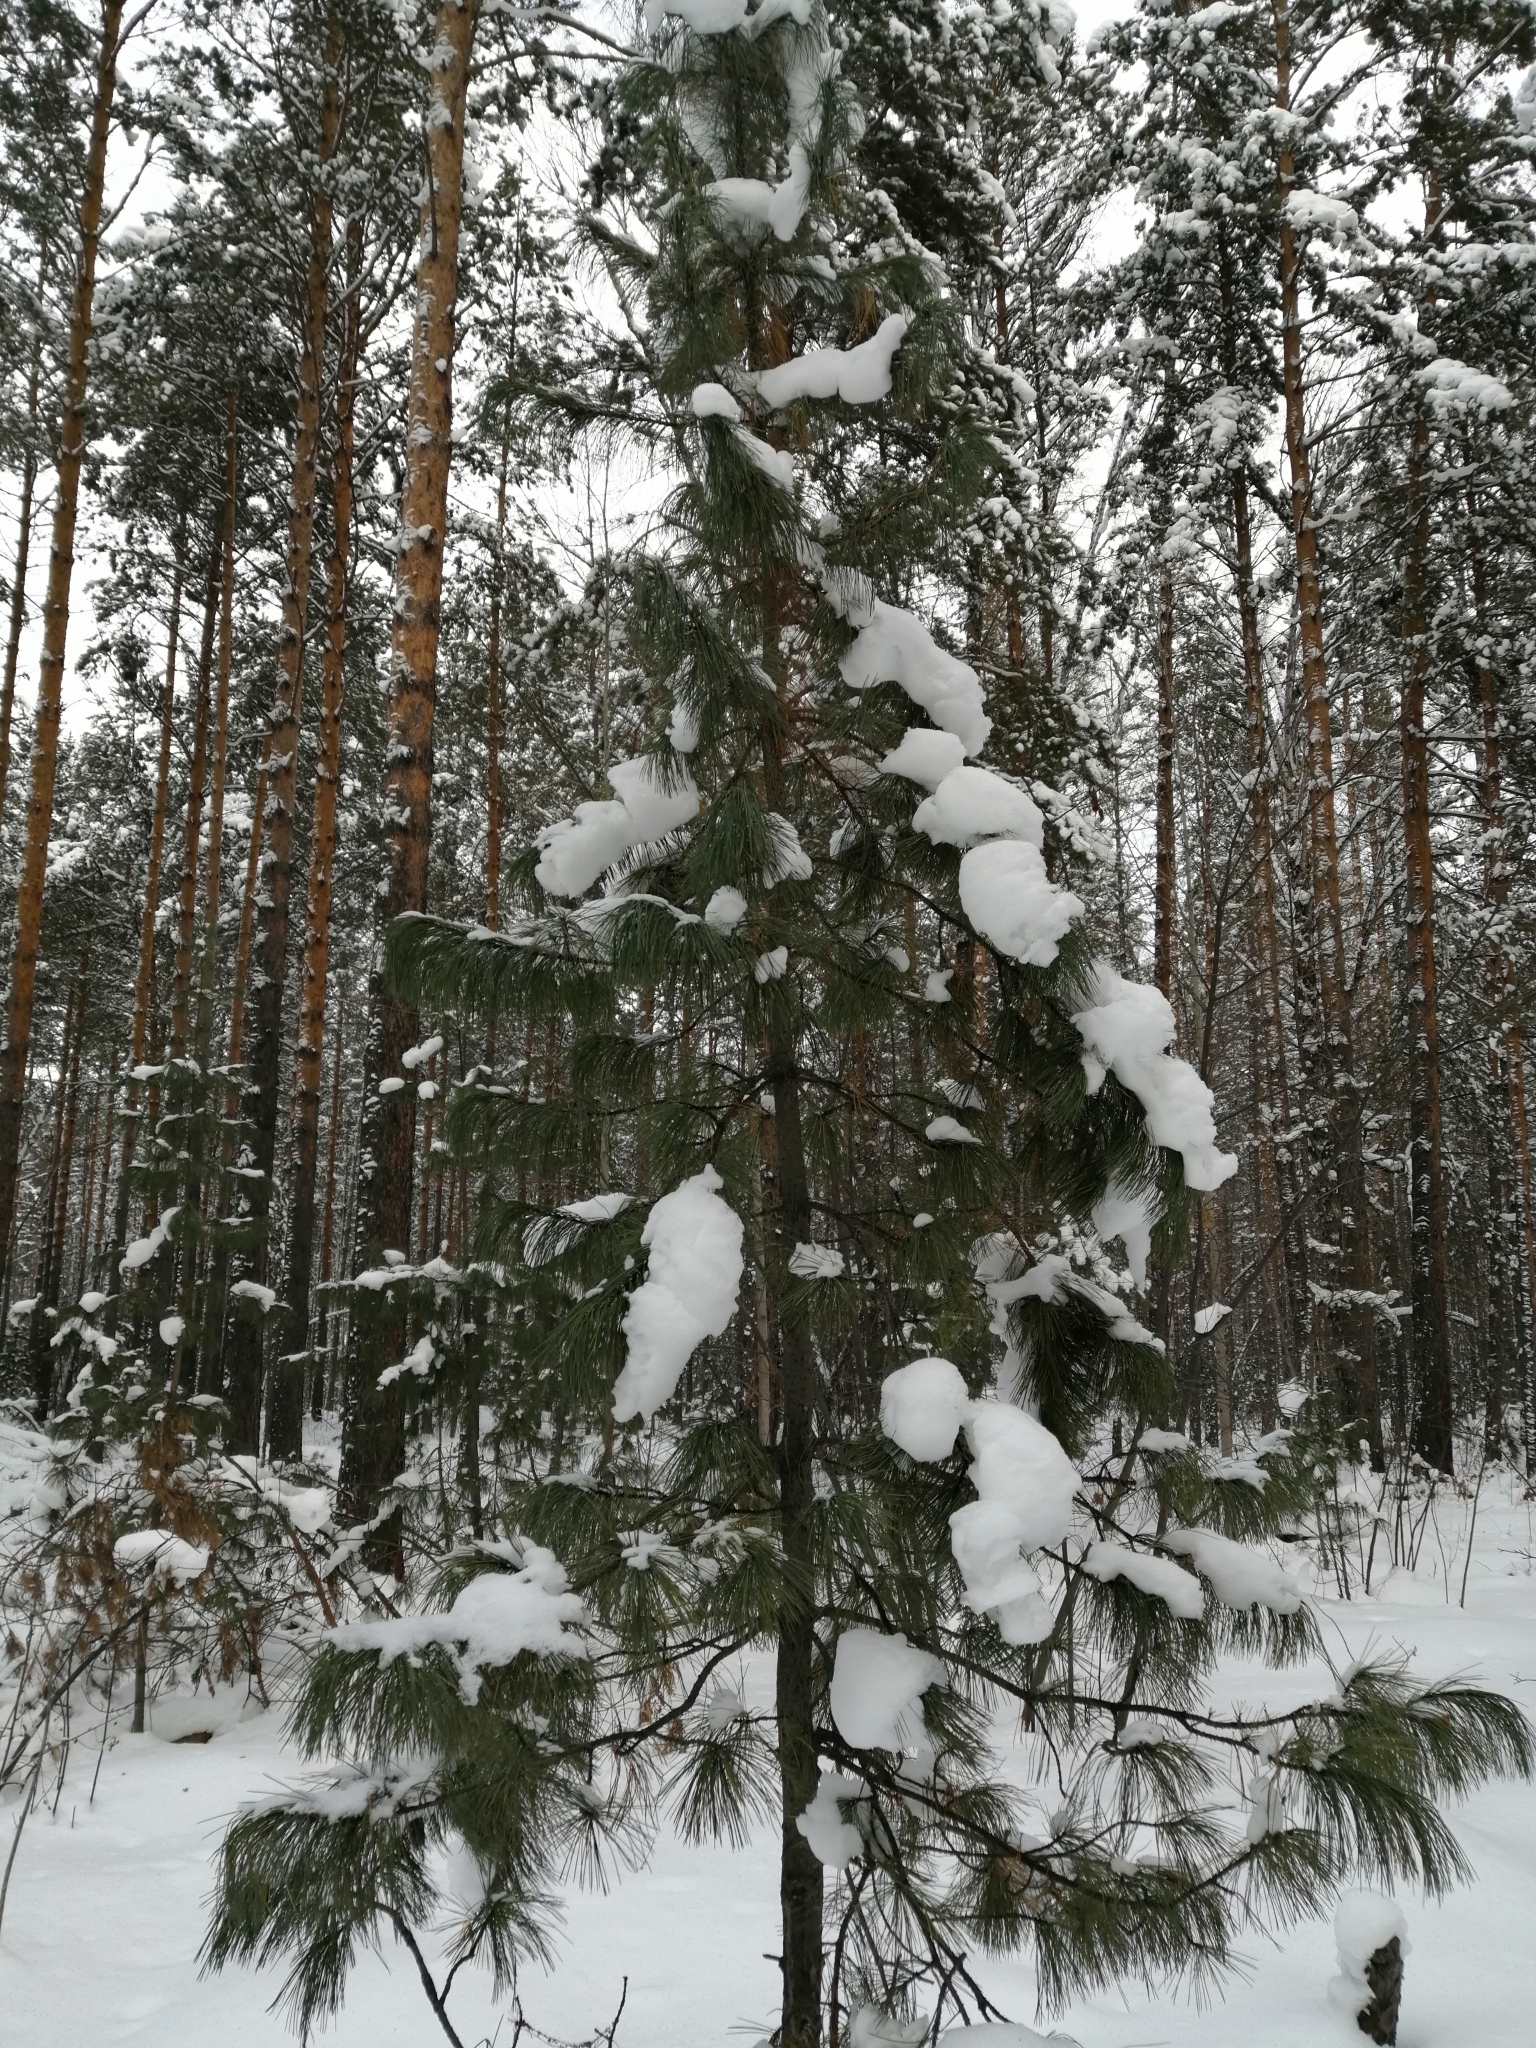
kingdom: Plantae
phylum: Tracheophyta
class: Pinopsida
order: Pinales
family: Pinaceae
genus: Pinus
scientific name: Pinus sibirica
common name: Siberian pine
